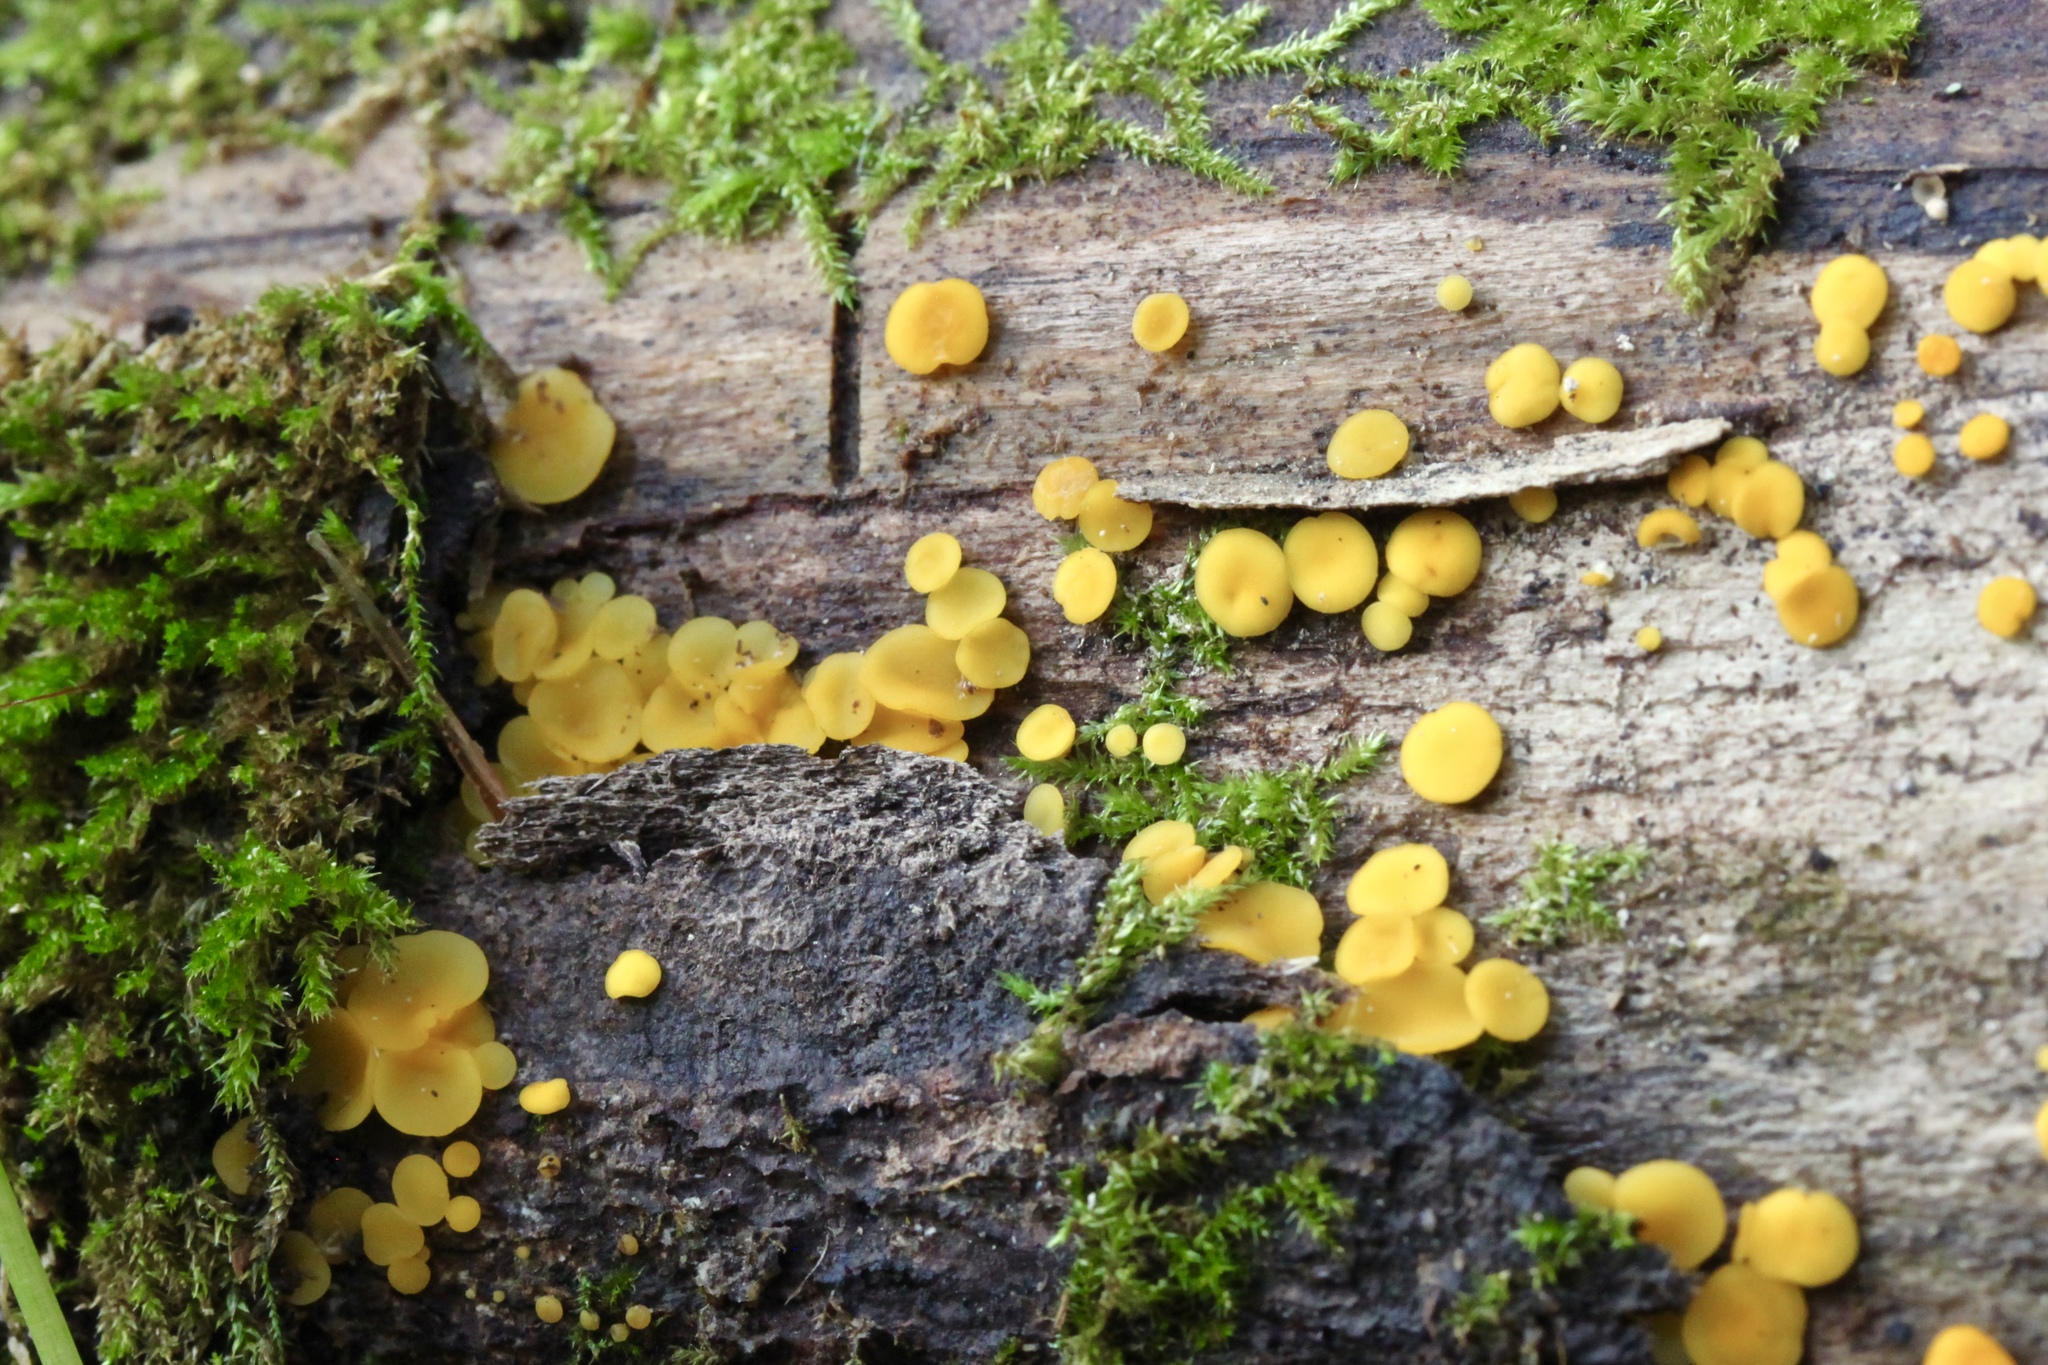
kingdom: Fungi
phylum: Ascomycota
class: Leotiomycetes
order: Helotiales
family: Pezizellaceae
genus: Calycina
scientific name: Calycina citrina
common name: Yellow fairy cups
